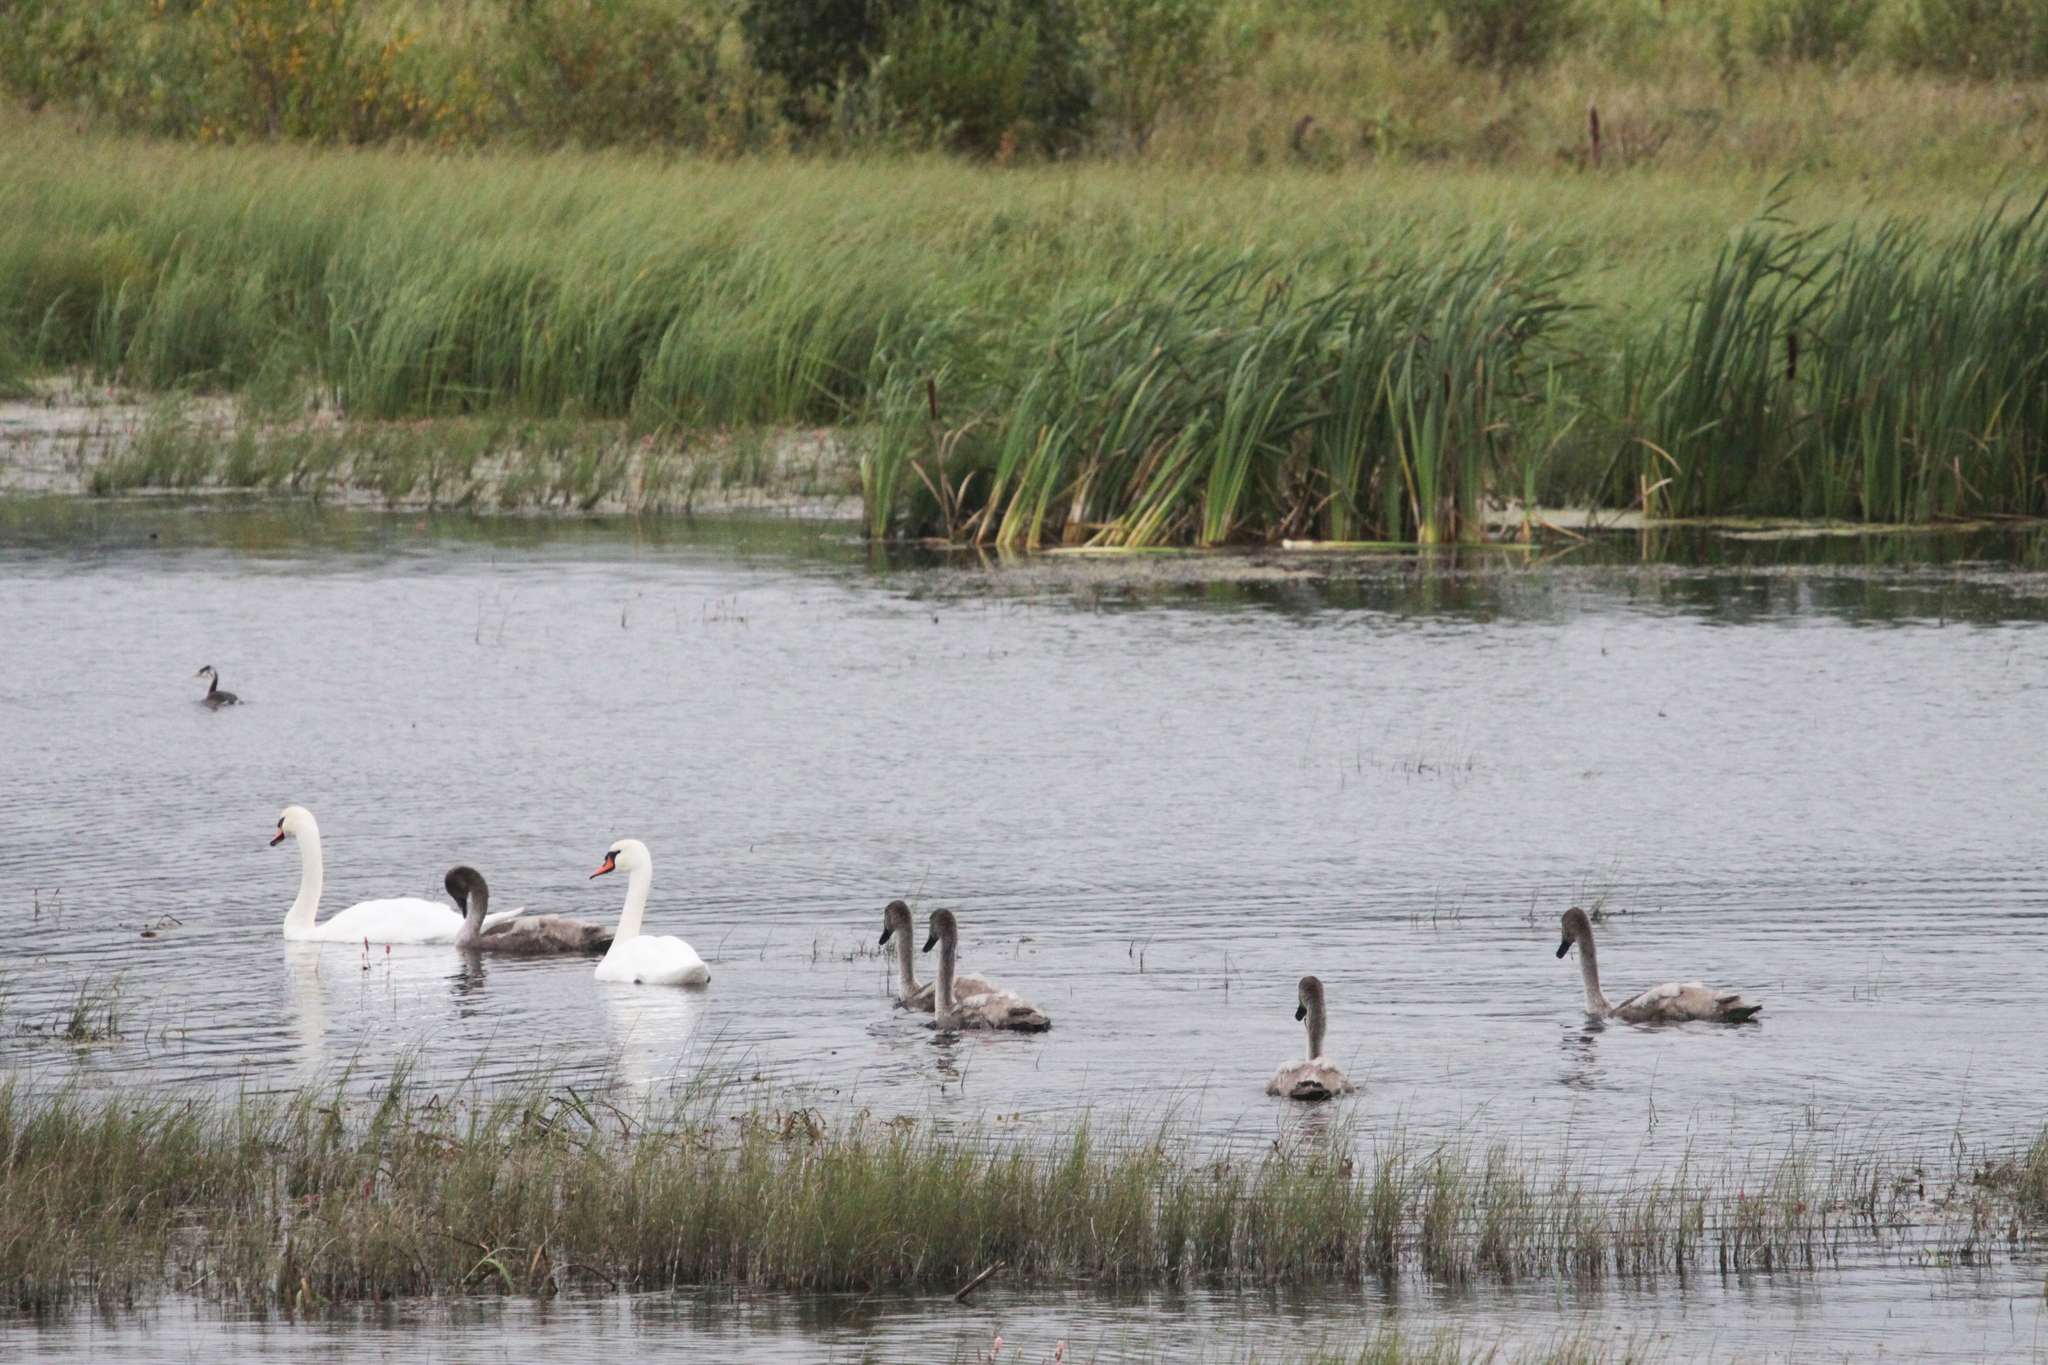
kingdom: Animalia
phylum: Chordata
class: Aves
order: Anseriformes
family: Anatidae
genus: Cygnus
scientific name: Cygnus olor
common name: Mute swan
